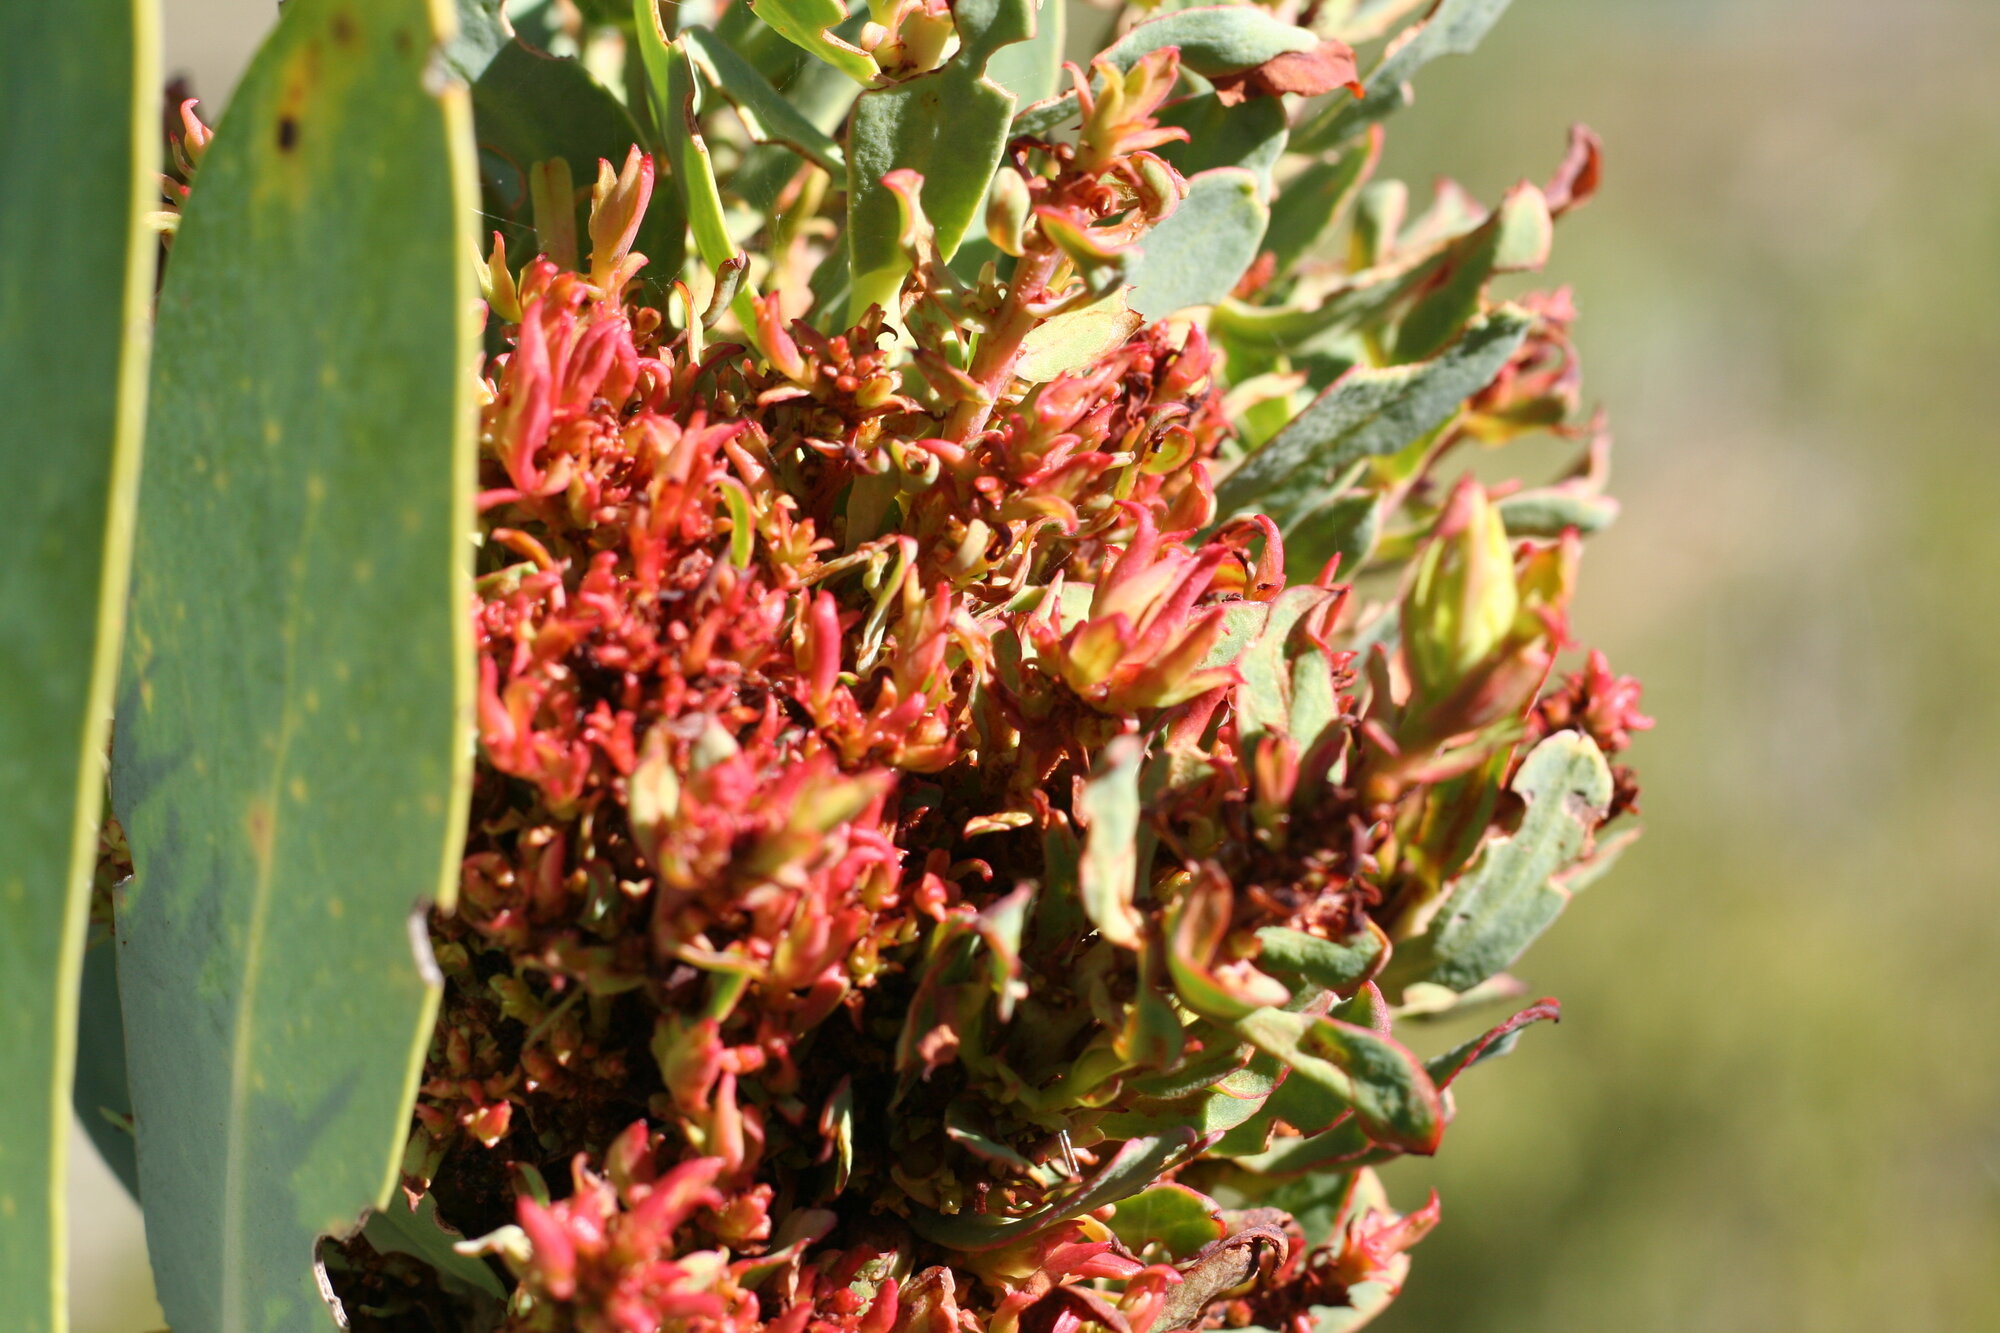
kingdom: Bacteria
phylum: Firmicutes
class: Bacilli
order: Acholeplasmatales
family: Acholeplasmataceae
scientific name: Acholeplasmataceae
